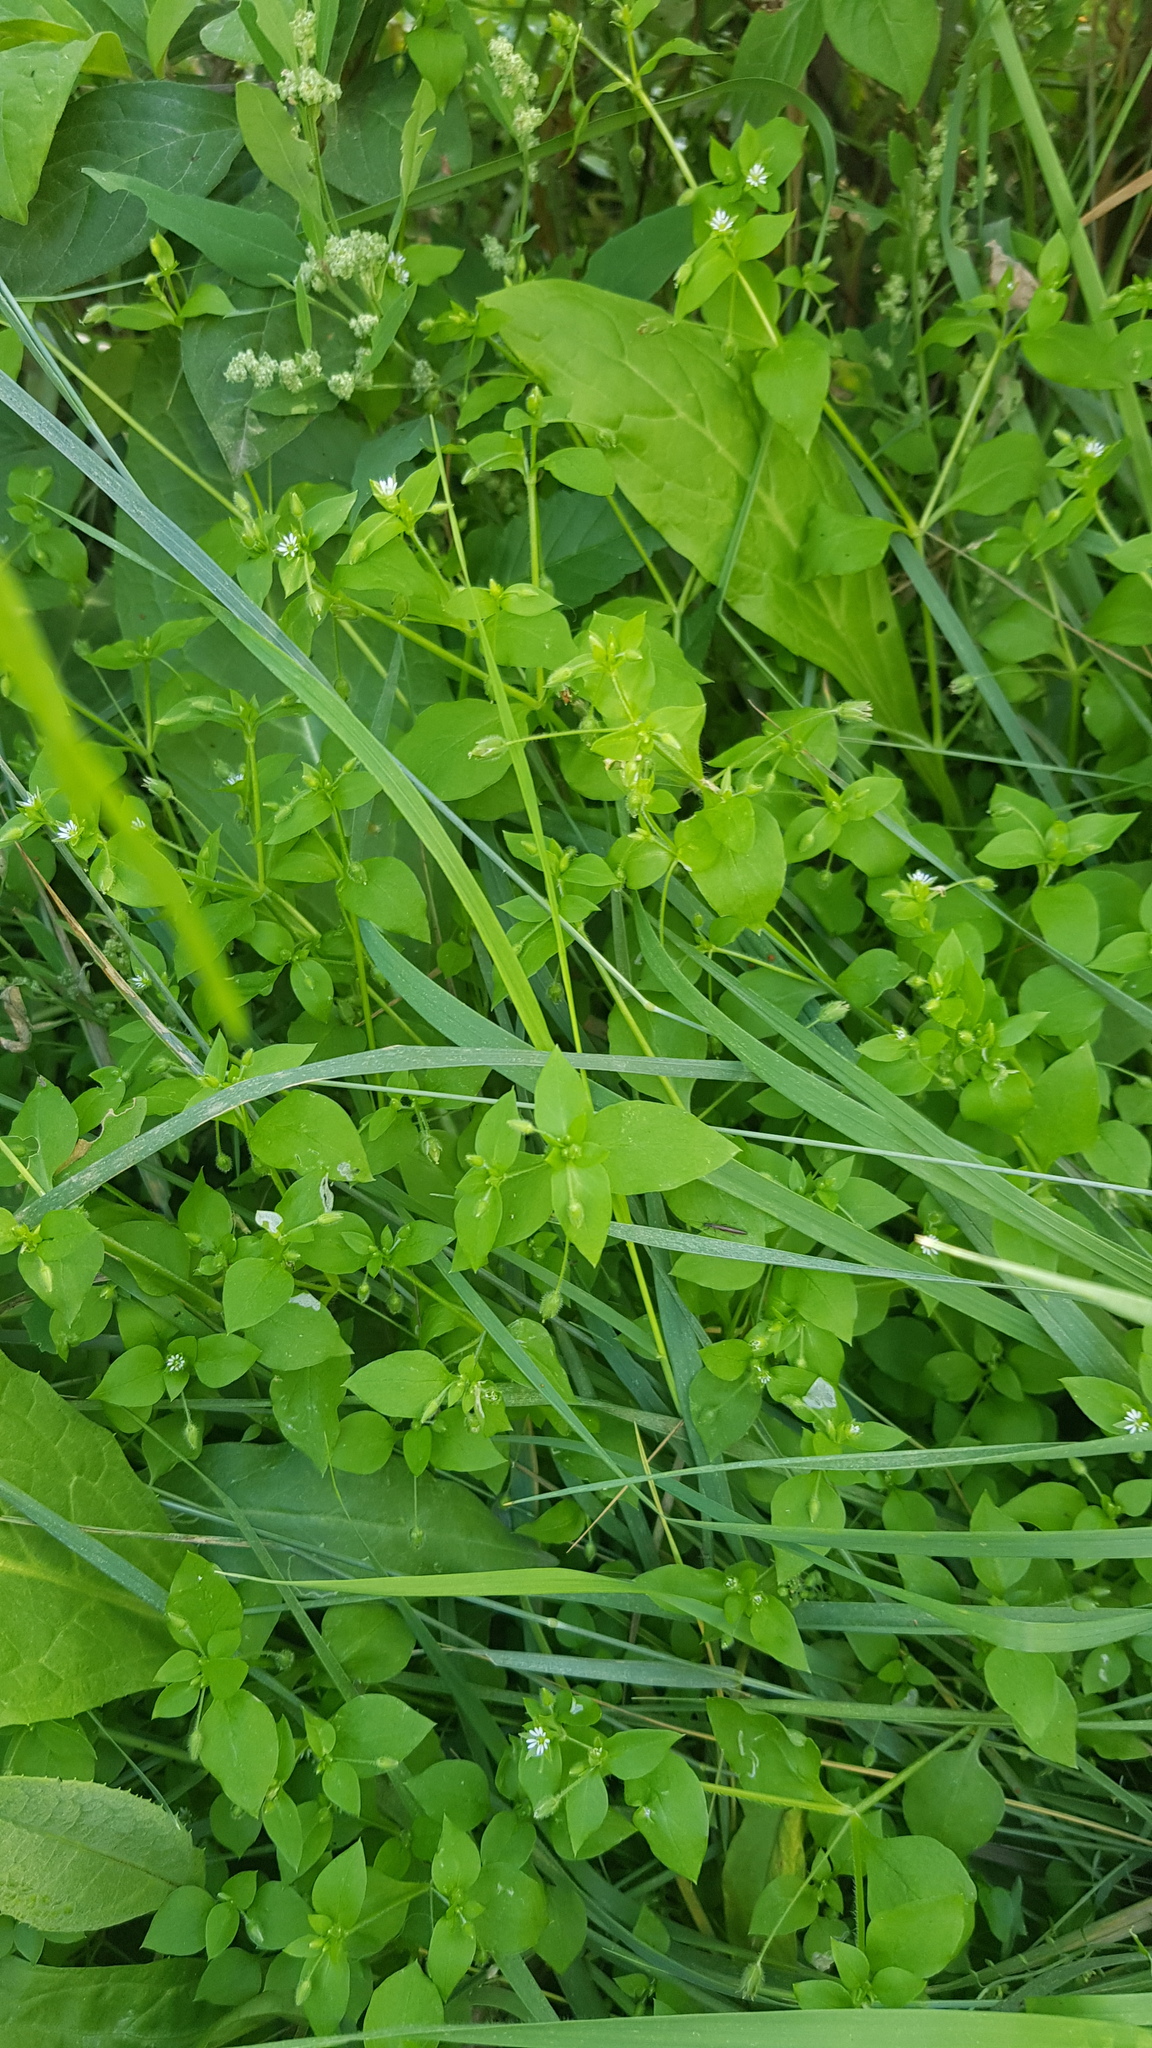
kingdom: Plantae
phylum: Tracheophyta
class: Magnoliopsida
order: Caryophyllales
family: Caryophyllaceae
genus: Stellaria
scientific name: Stellaria media
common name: Common chickweed
